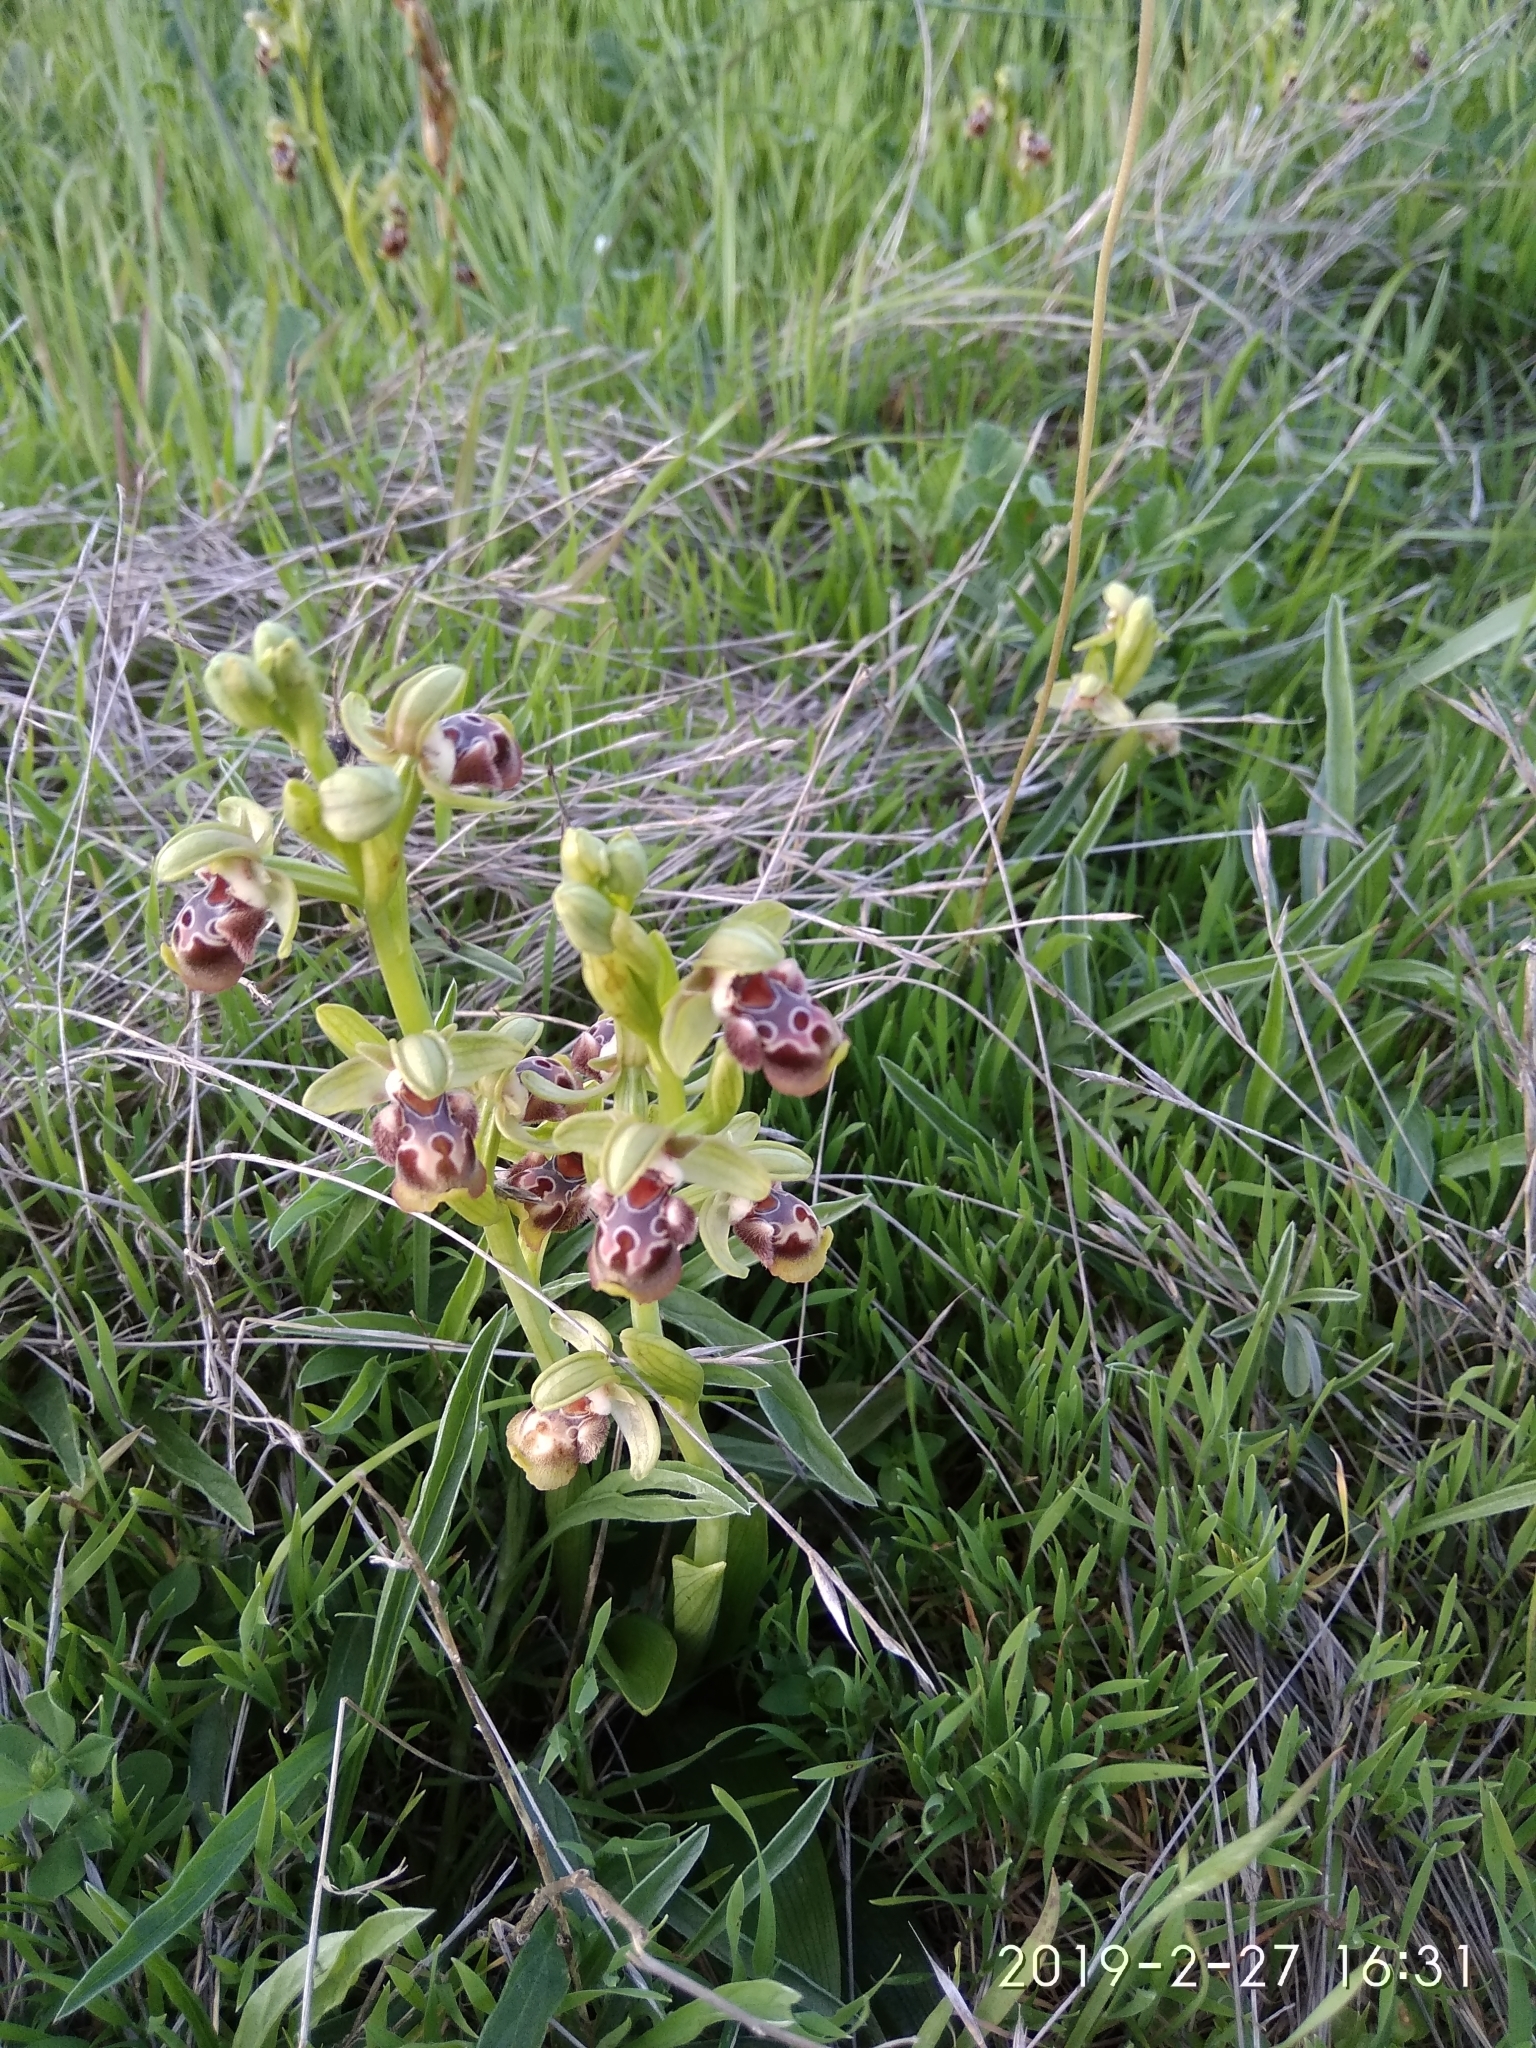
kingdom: Plantae
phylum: Tracheophyta
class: Liliopsida
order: Asparagales
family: Orchidaceae
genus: Ophrys
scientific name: Ophrys umbilicata
